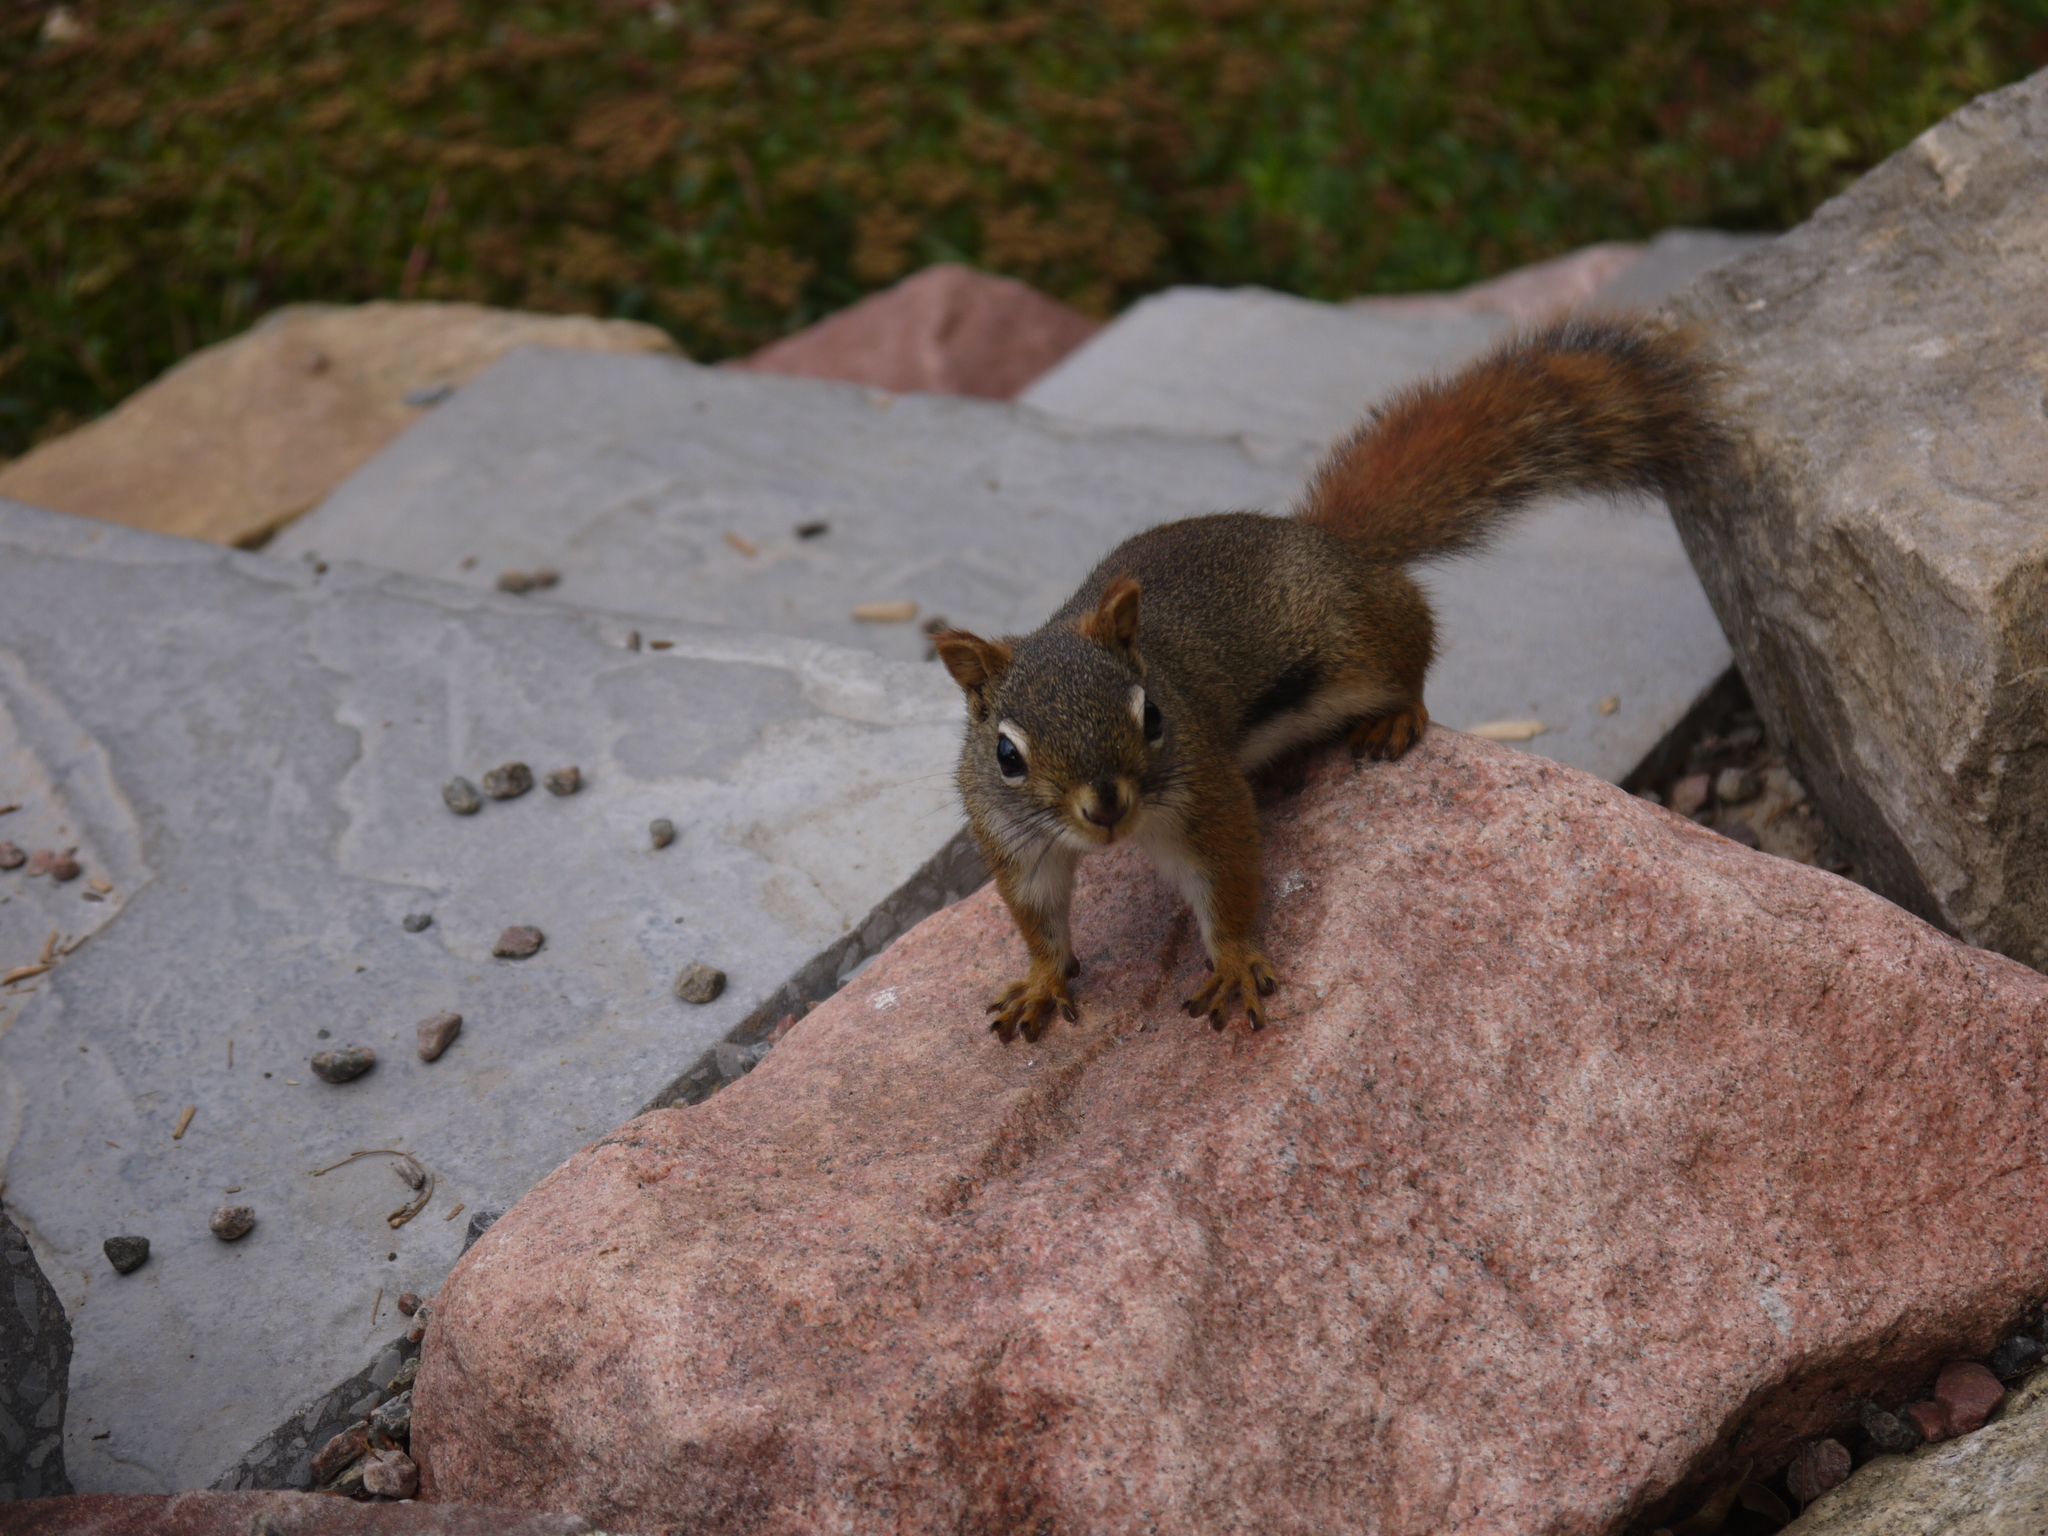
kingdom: Animalia
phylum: Chordata
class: Mammalia
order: Rodentia
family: Sciuridae
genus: Tamiasciurus
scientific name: Tamiasciurus hudsonicus
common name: Red squirrel
